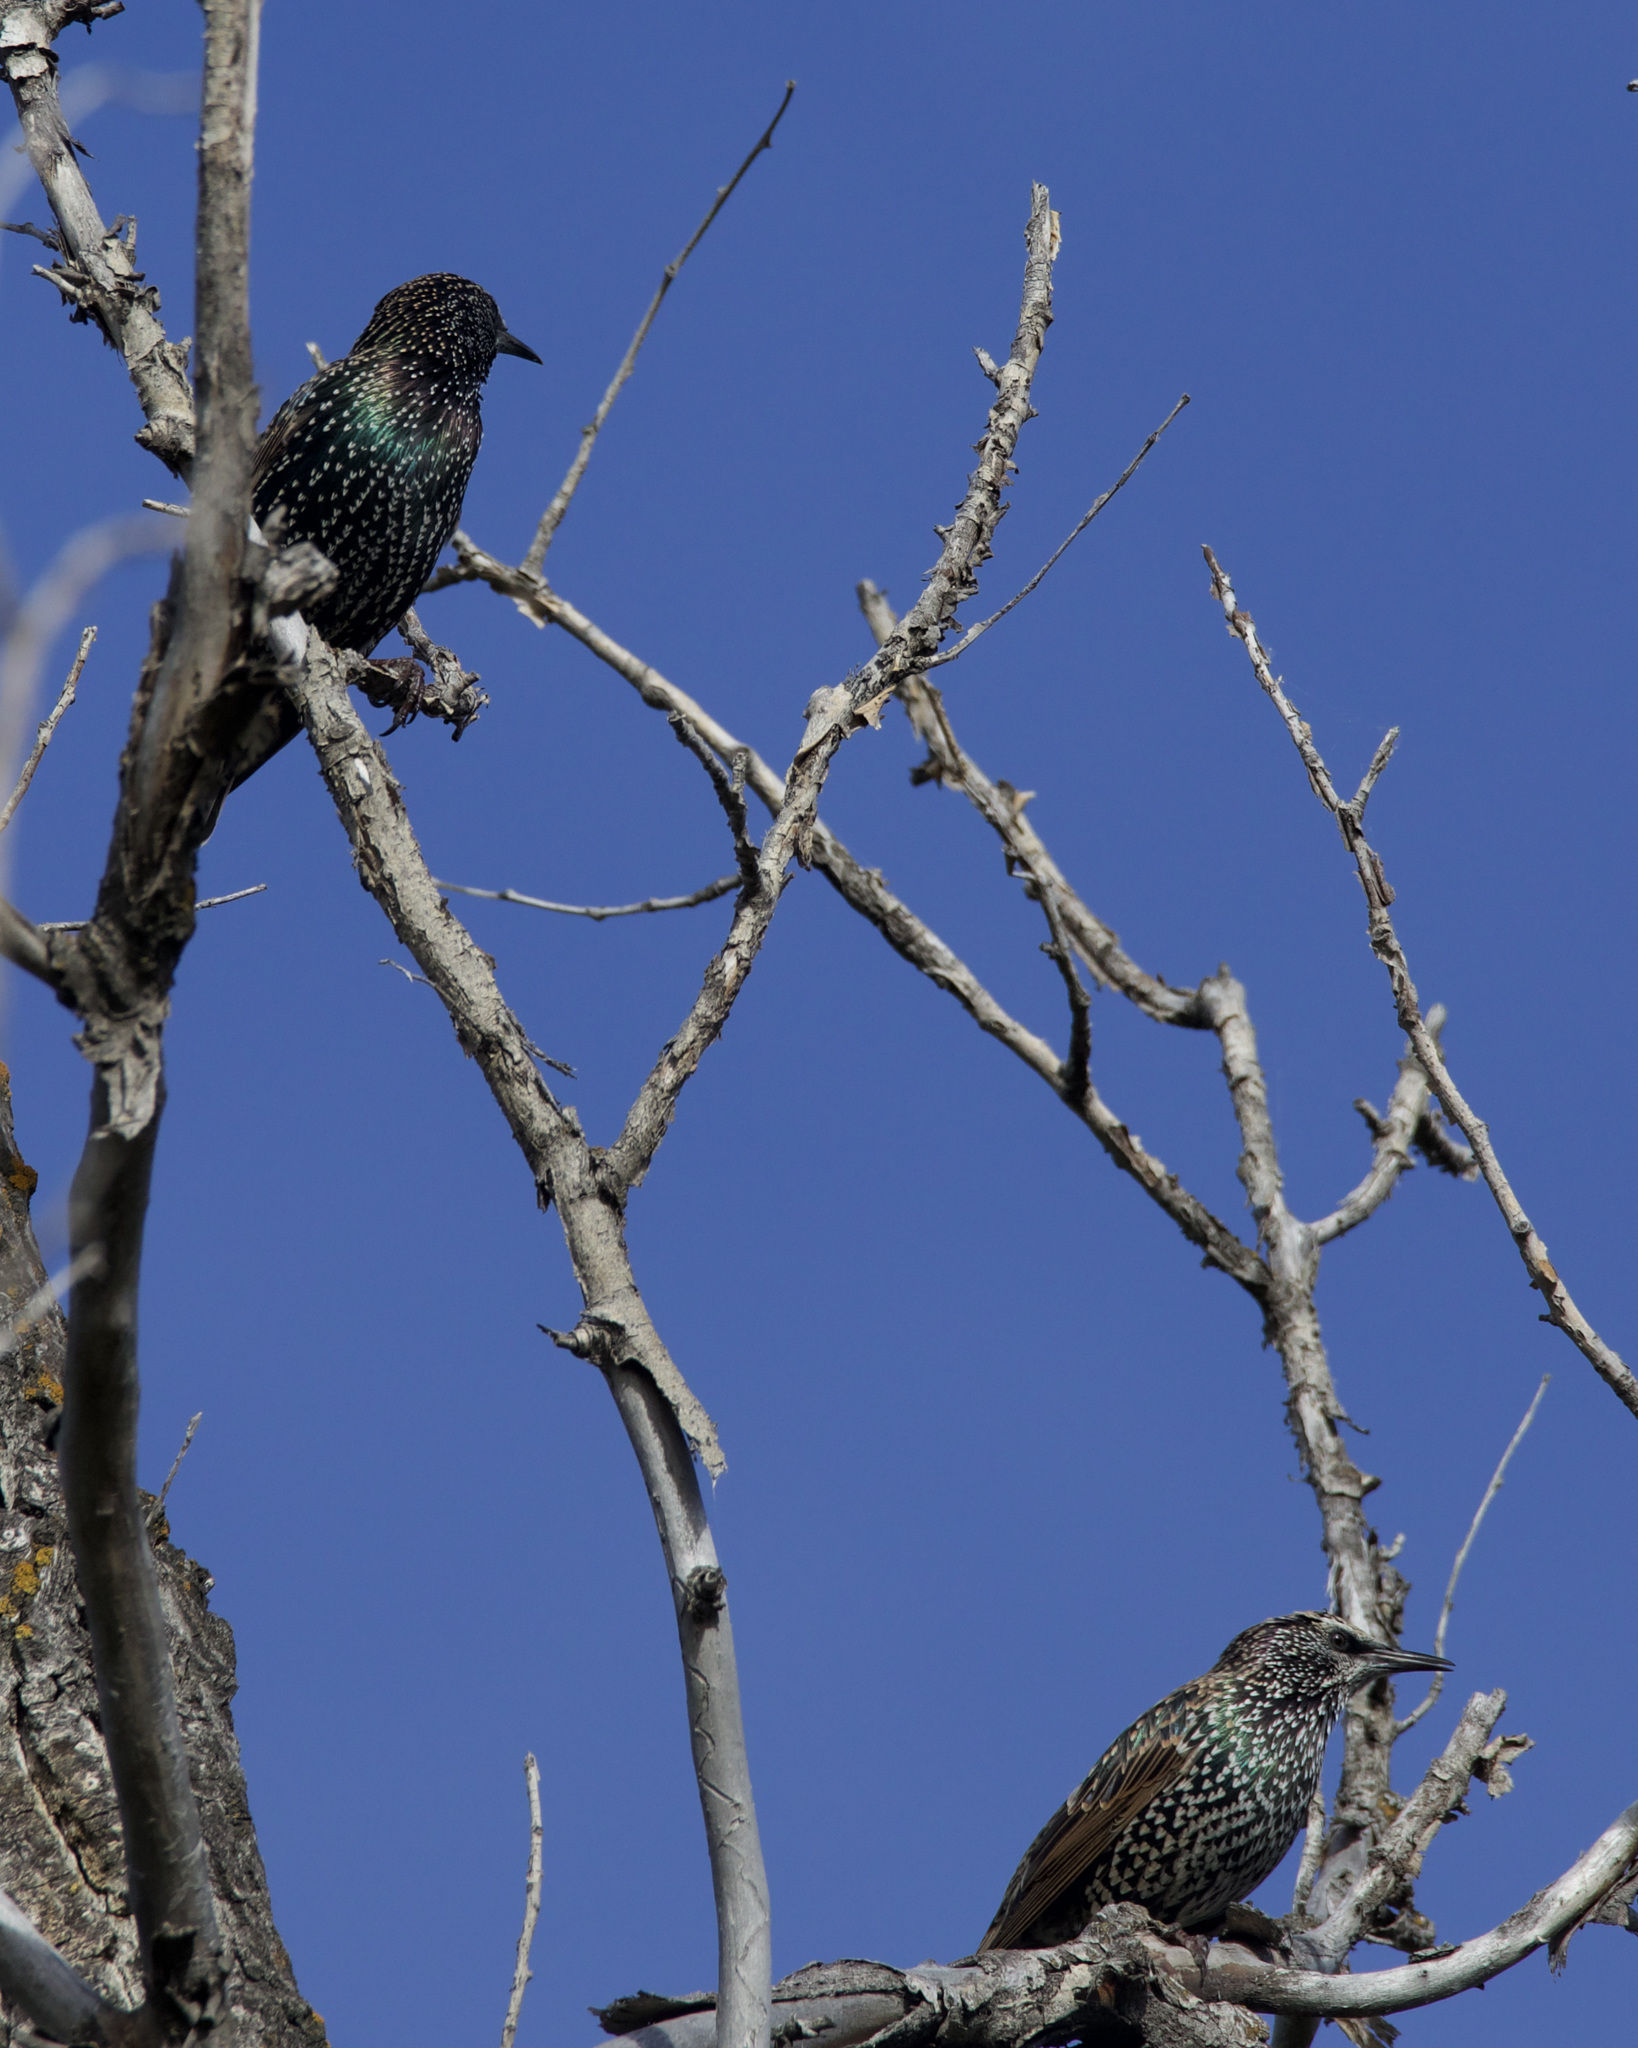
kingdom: Animalia
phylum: Chordata
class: Aves
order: Passeriformes
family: Sturnidae
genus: Sturnus
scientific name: Sturnus vulgaris
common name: Common starling
